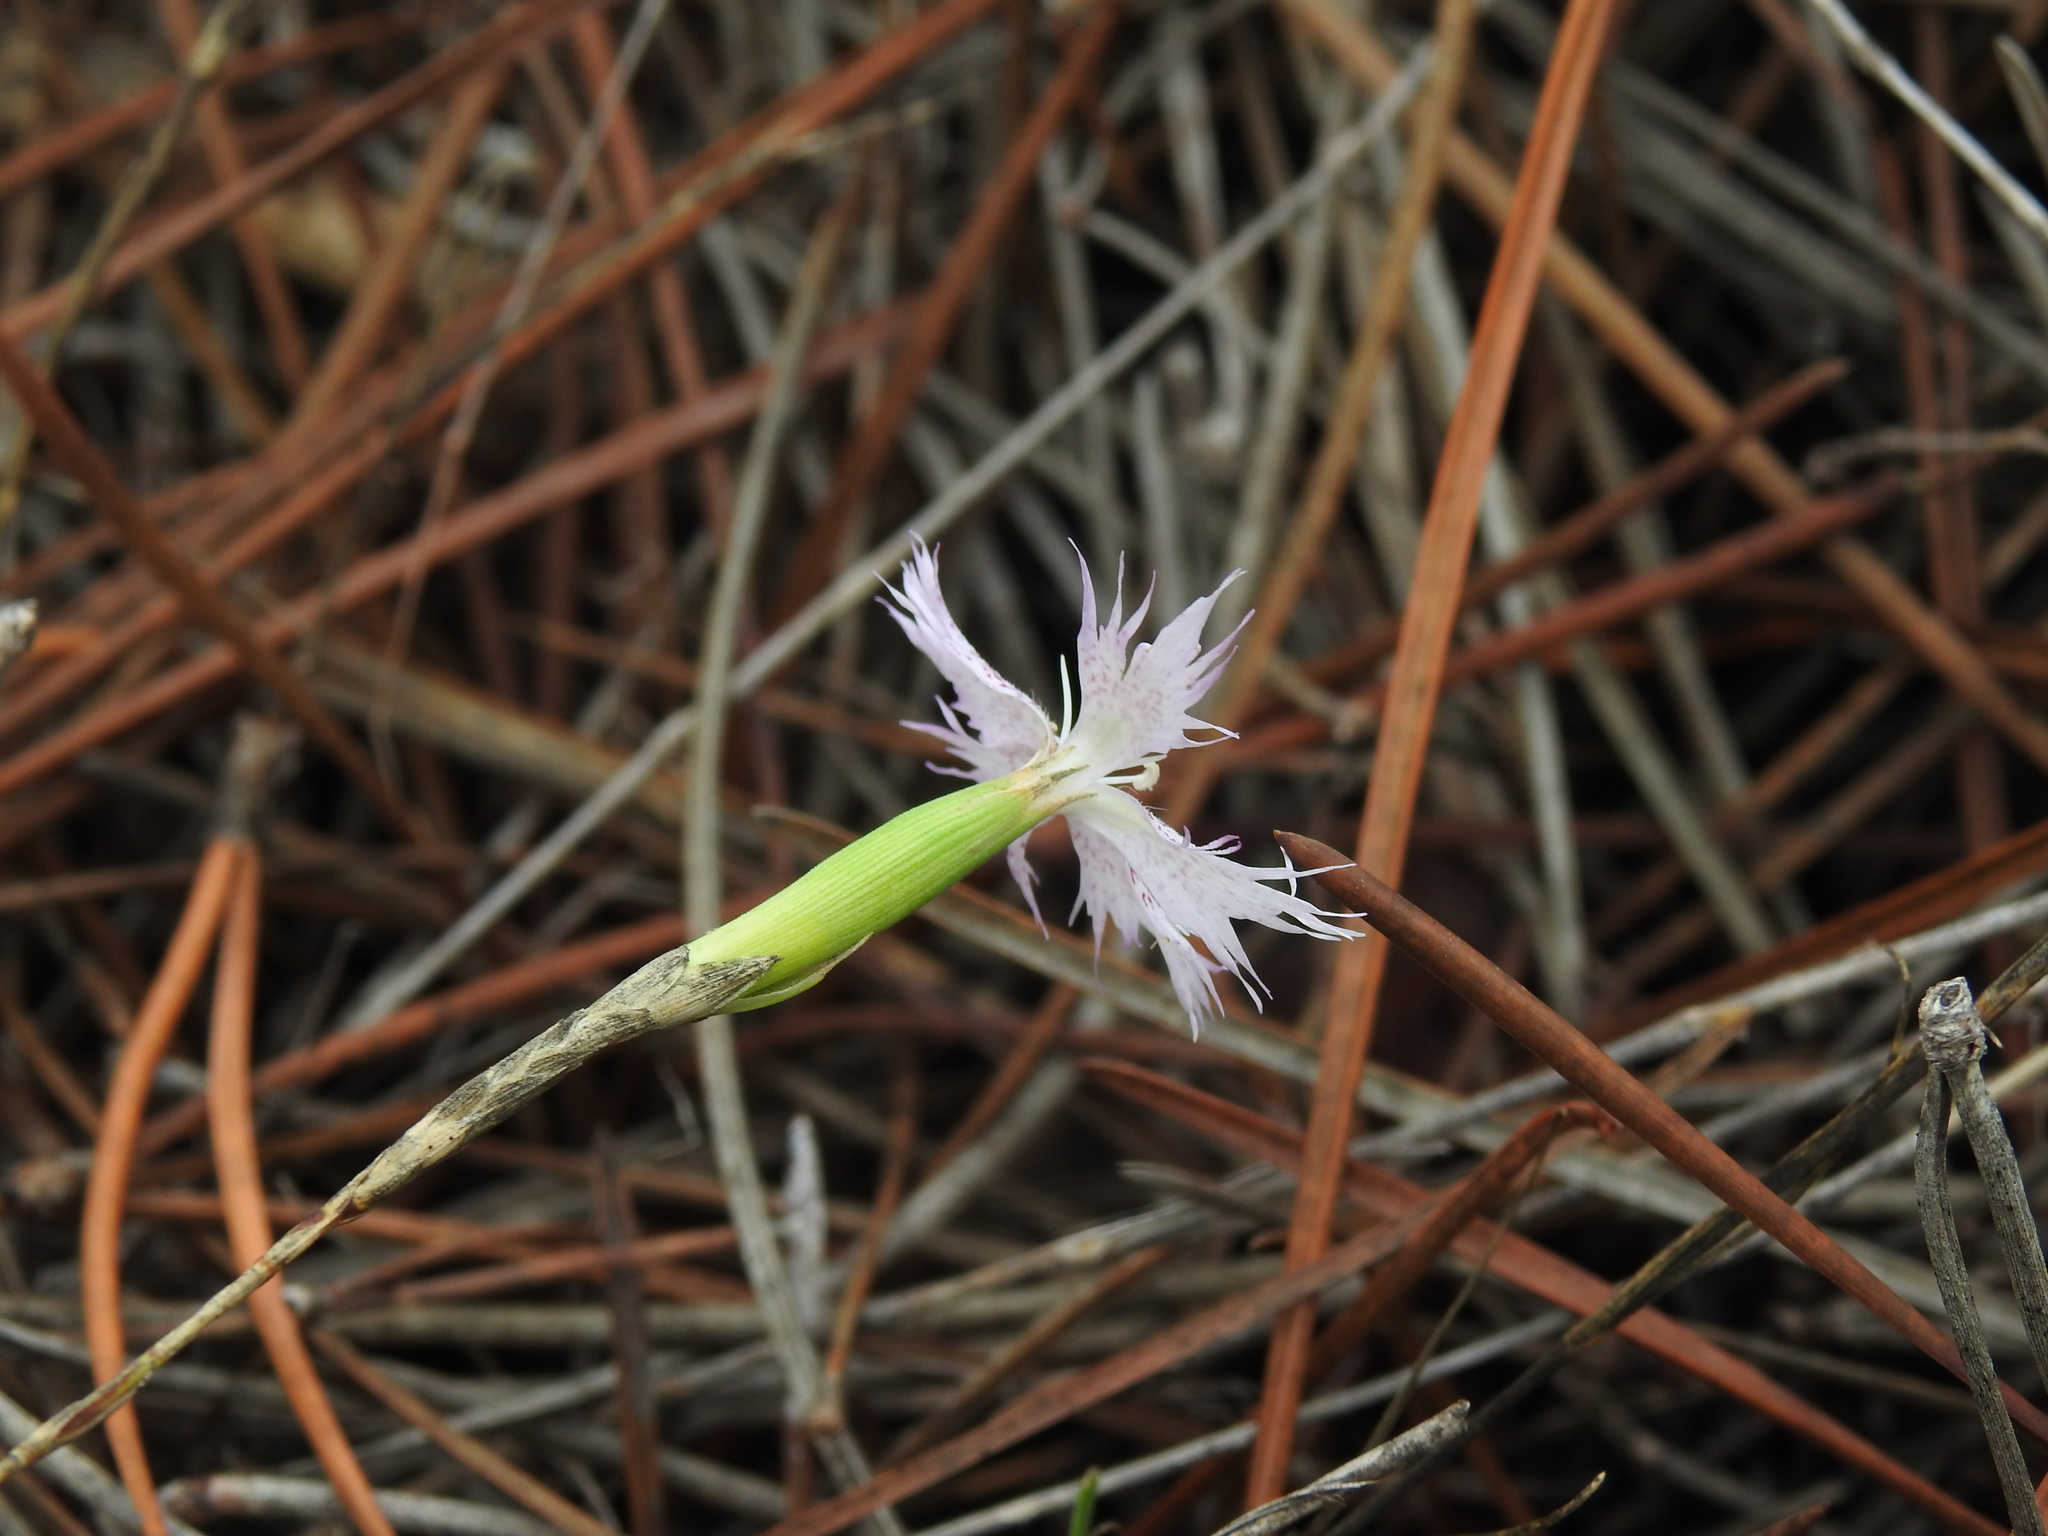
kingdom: Plantae
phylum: Tracheophyta
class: Magnoliopsida
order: Caryophyllales
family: Caryophyllaceae
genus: Dianthus
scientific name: Dianthus broteri
